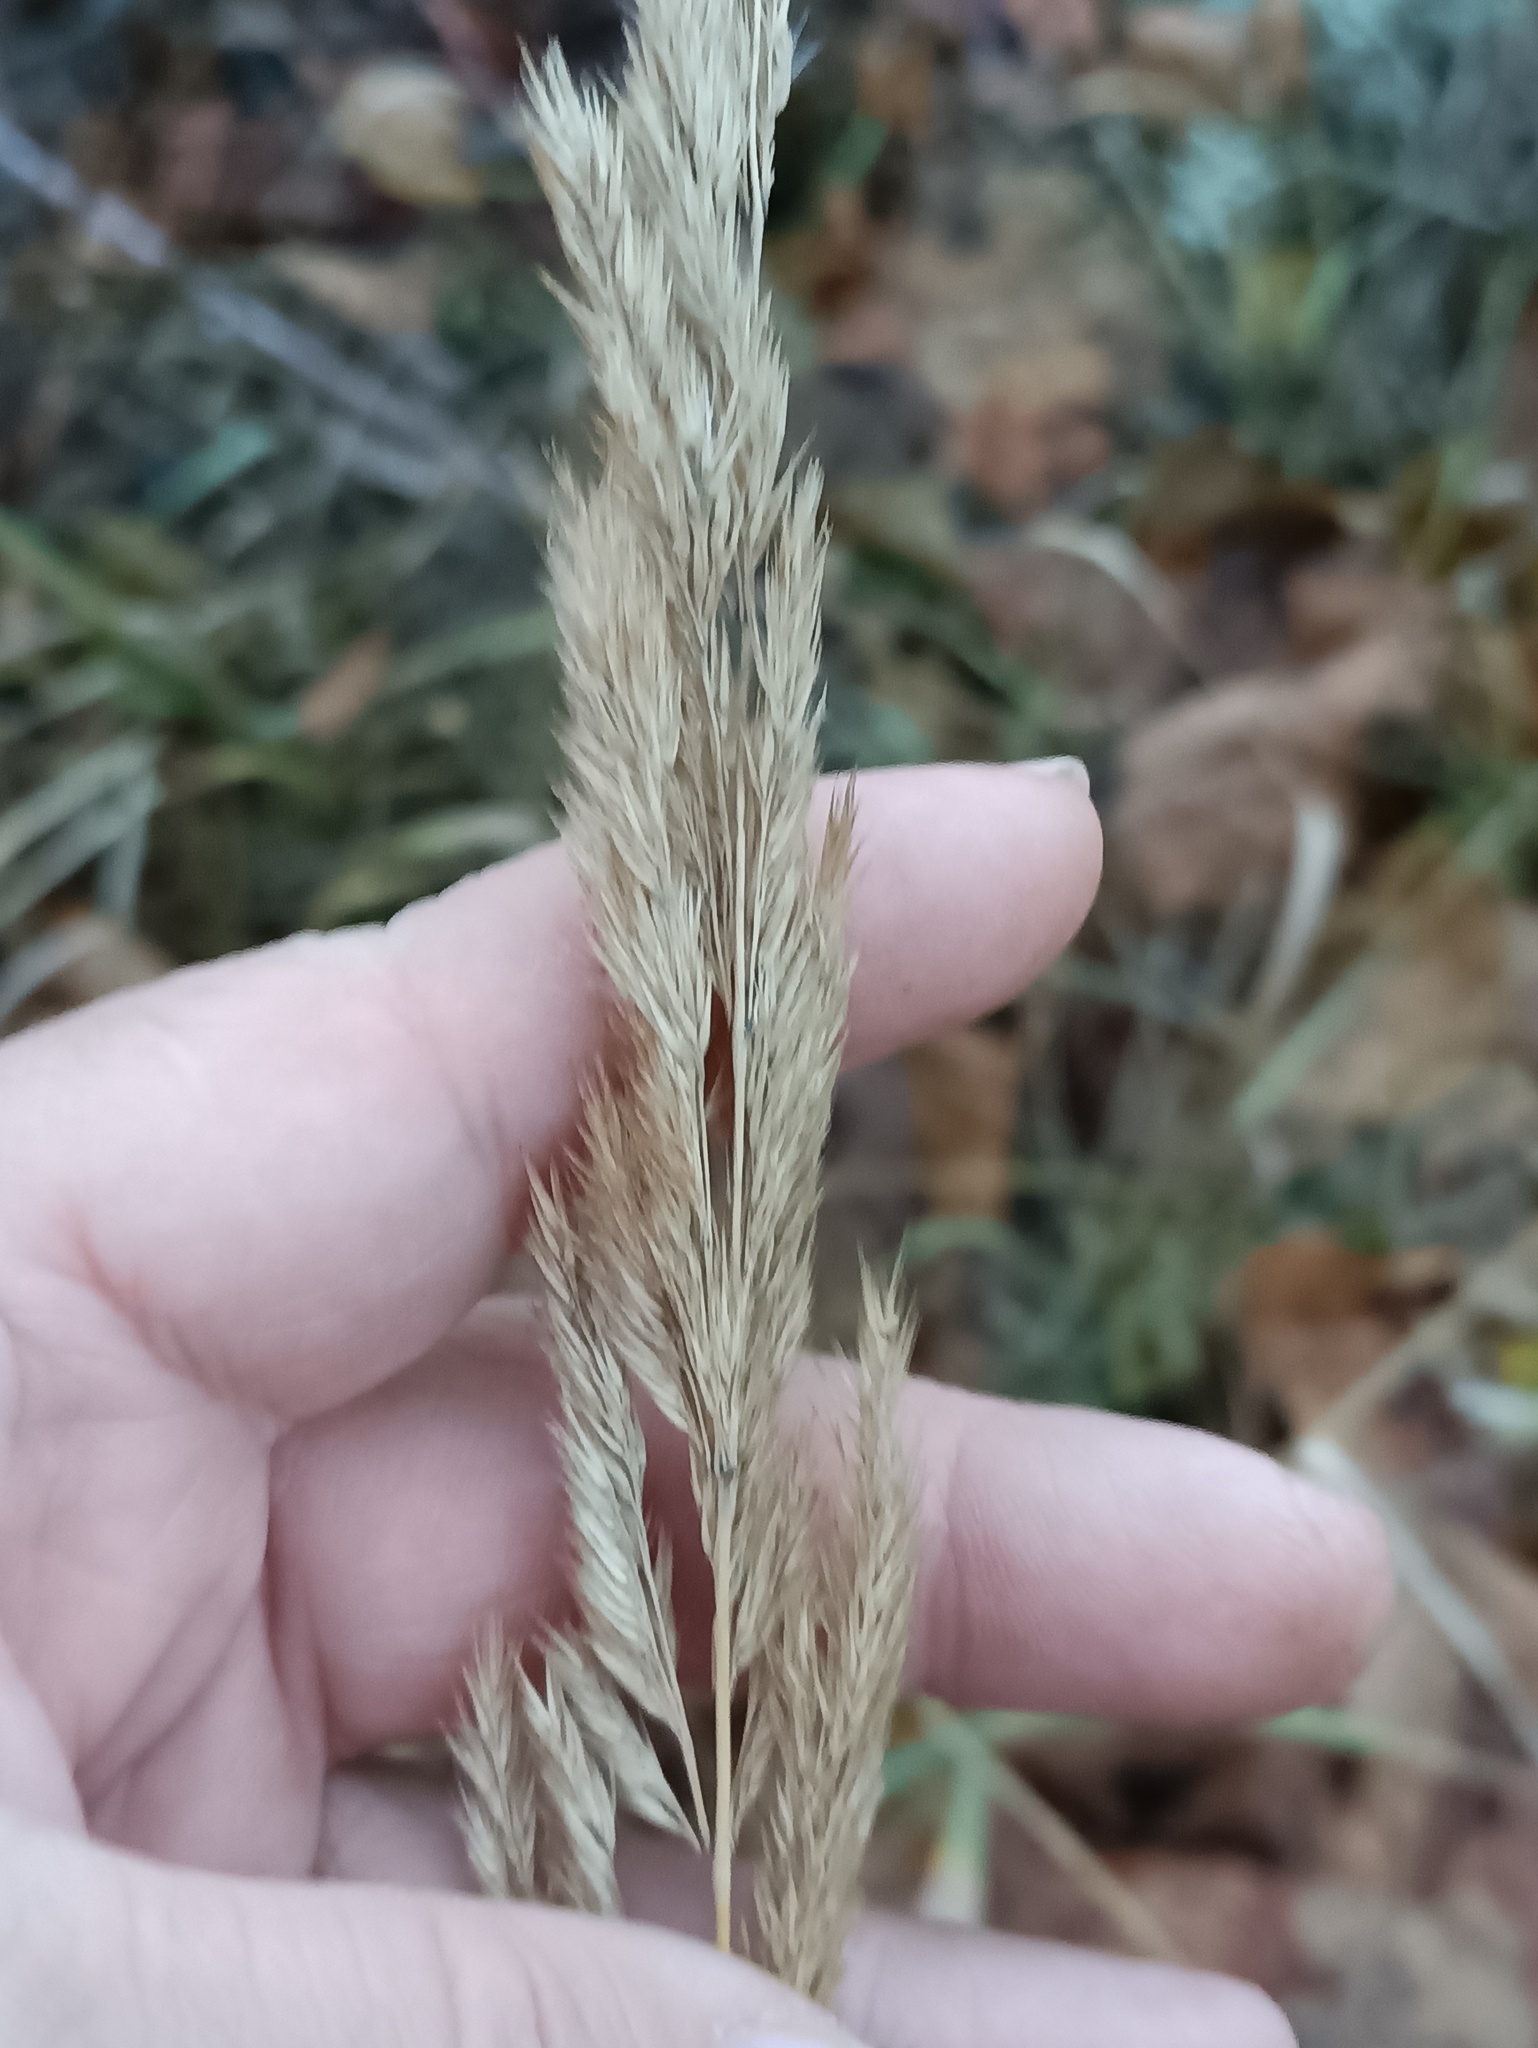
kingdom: Plantae
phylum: Tracheophyta
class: Liliopsida
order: Poales
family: Poaceae
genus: Calamagrostis
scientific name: Calamagrostis epigejos
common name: Wood small-reed
